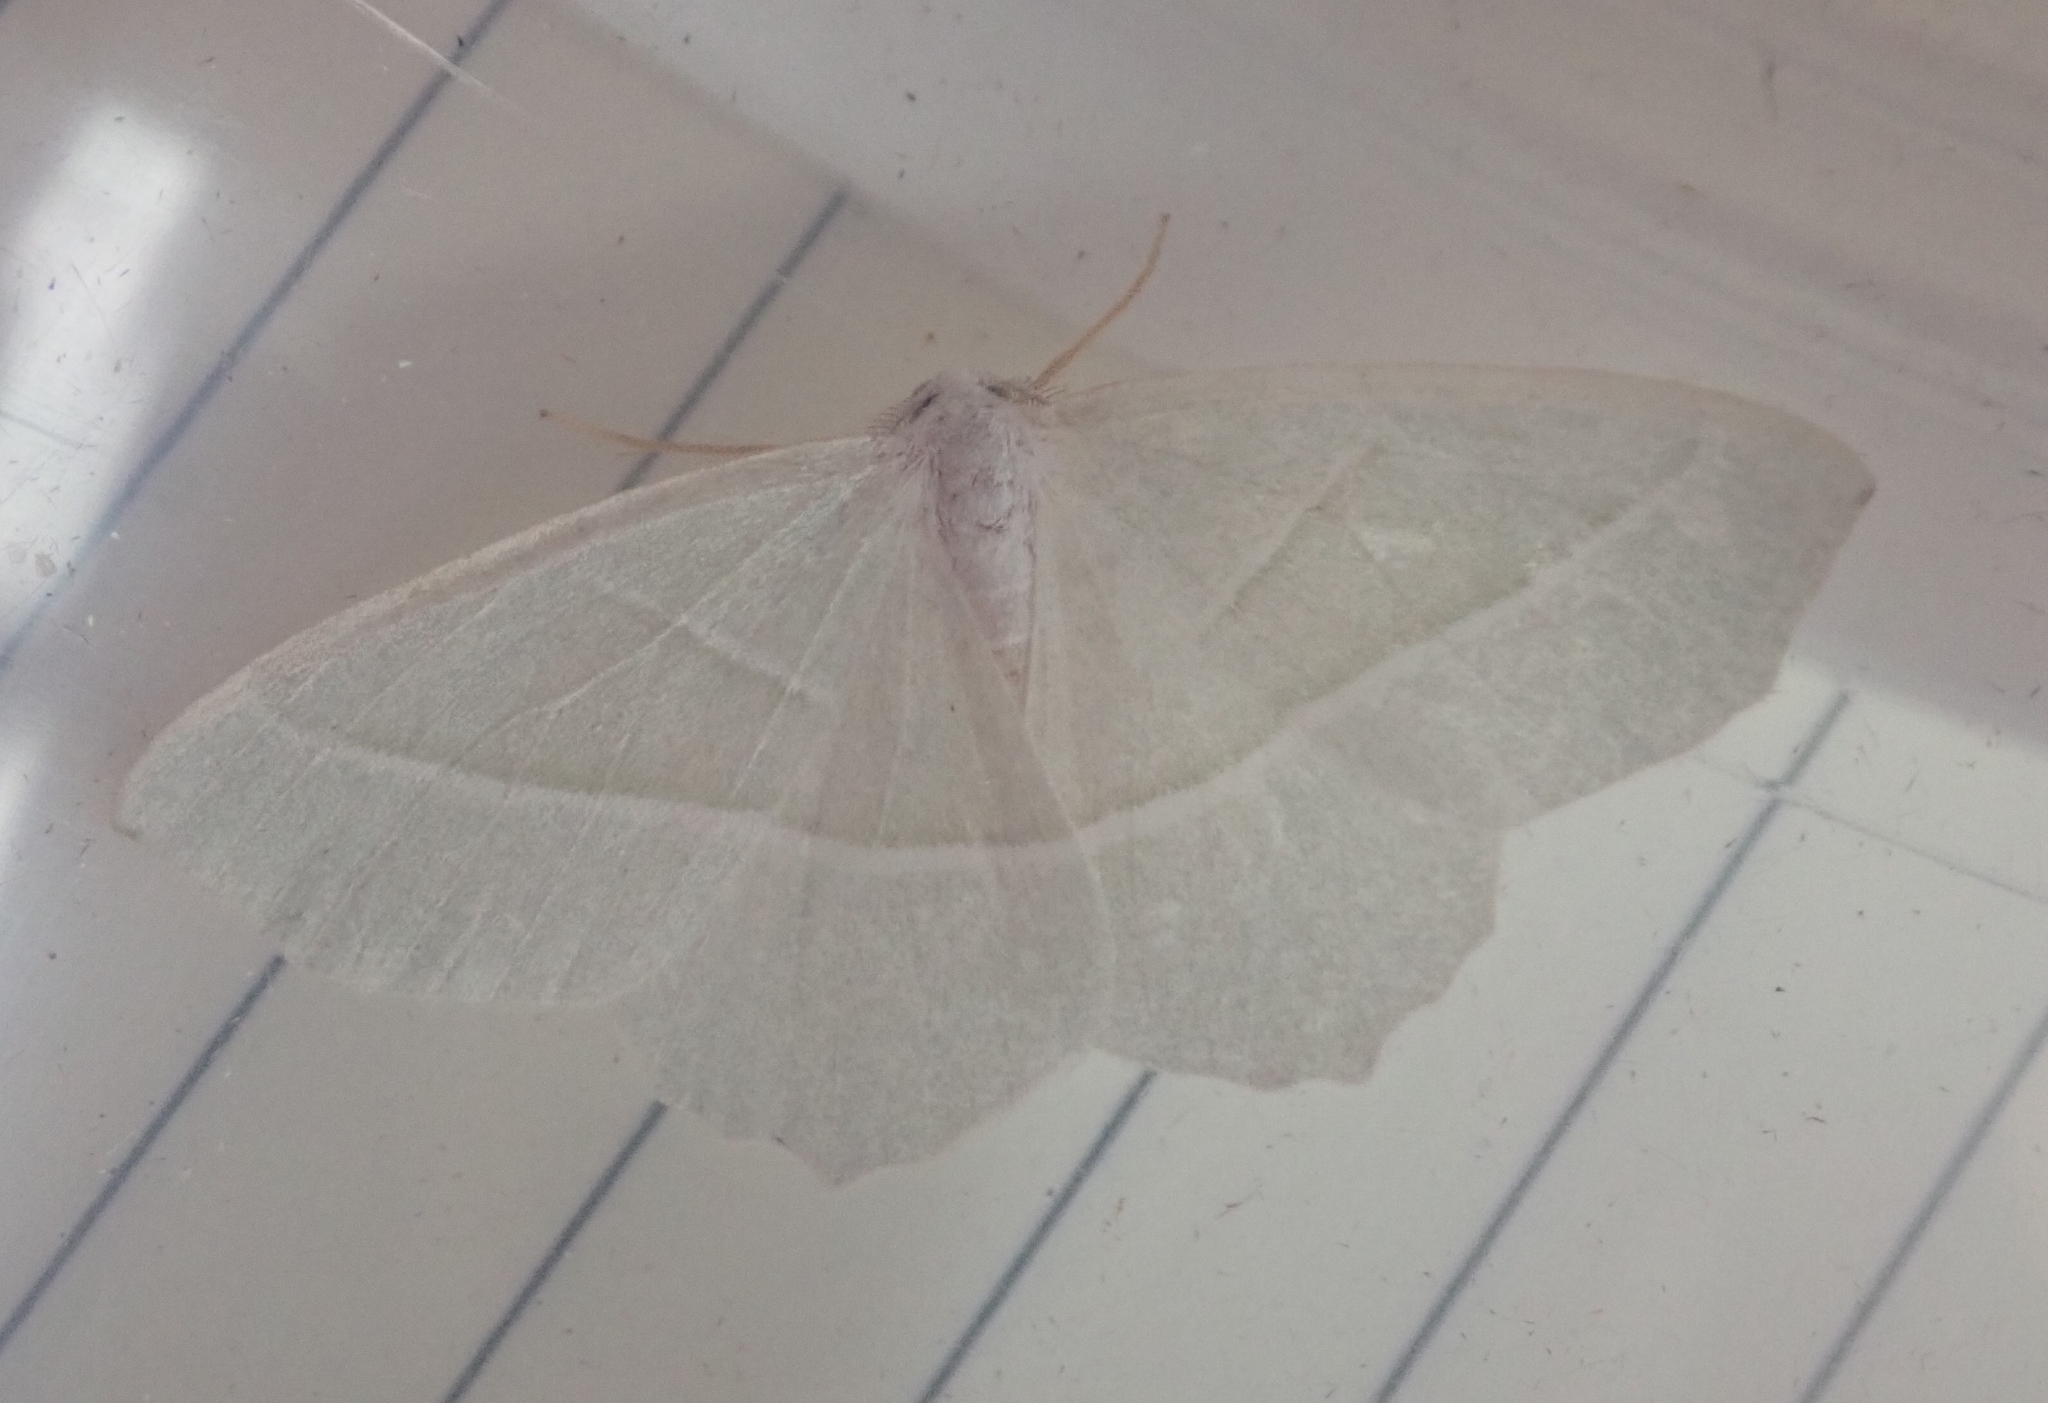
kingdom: Animalia
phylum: Arthropoda
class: Insecta
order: Lepidoptera
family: Geometridae
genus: Campaea
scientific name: Campaea margaritaria
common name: Light emerald
